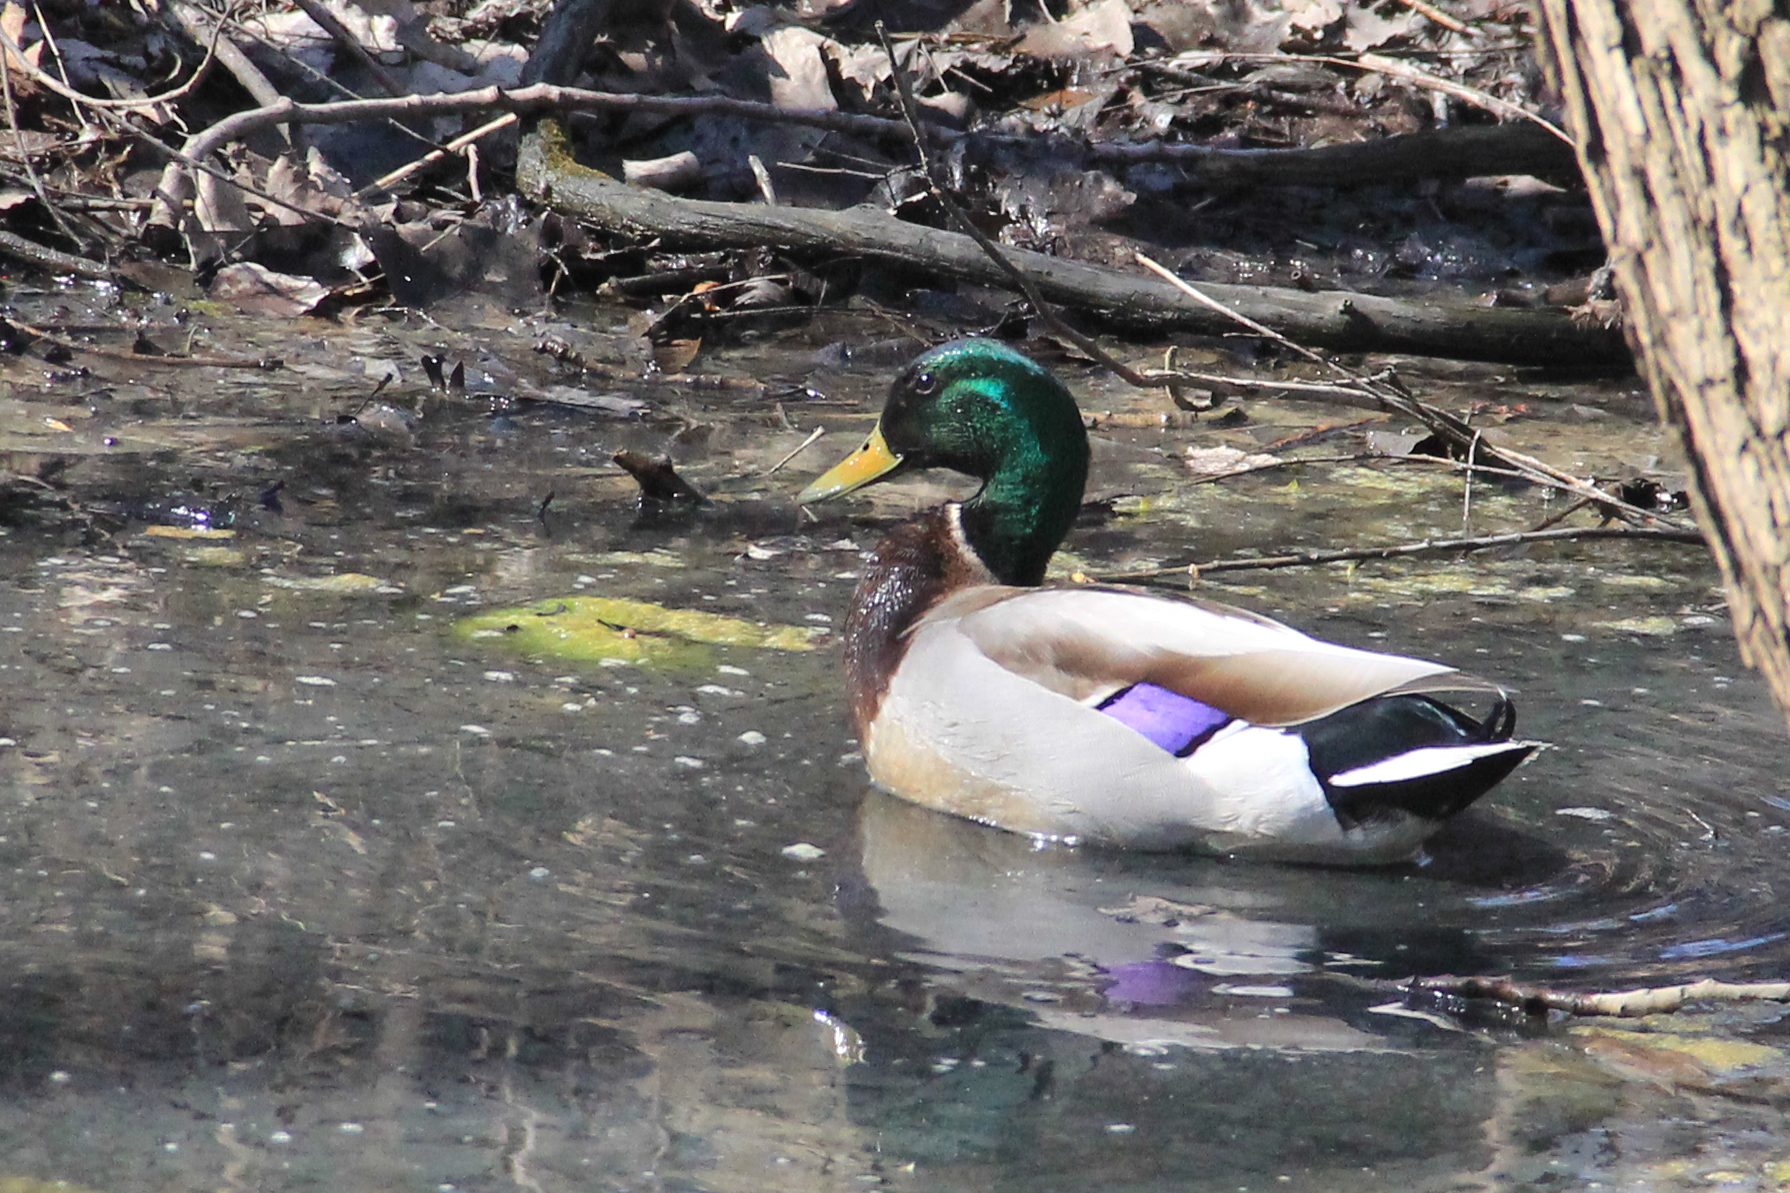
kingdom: Animalia
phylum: Chordata
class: Aves
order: Anseriformes
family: Anatidae
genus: Anas
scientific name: Anas platyrhynchos
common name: Mallard
